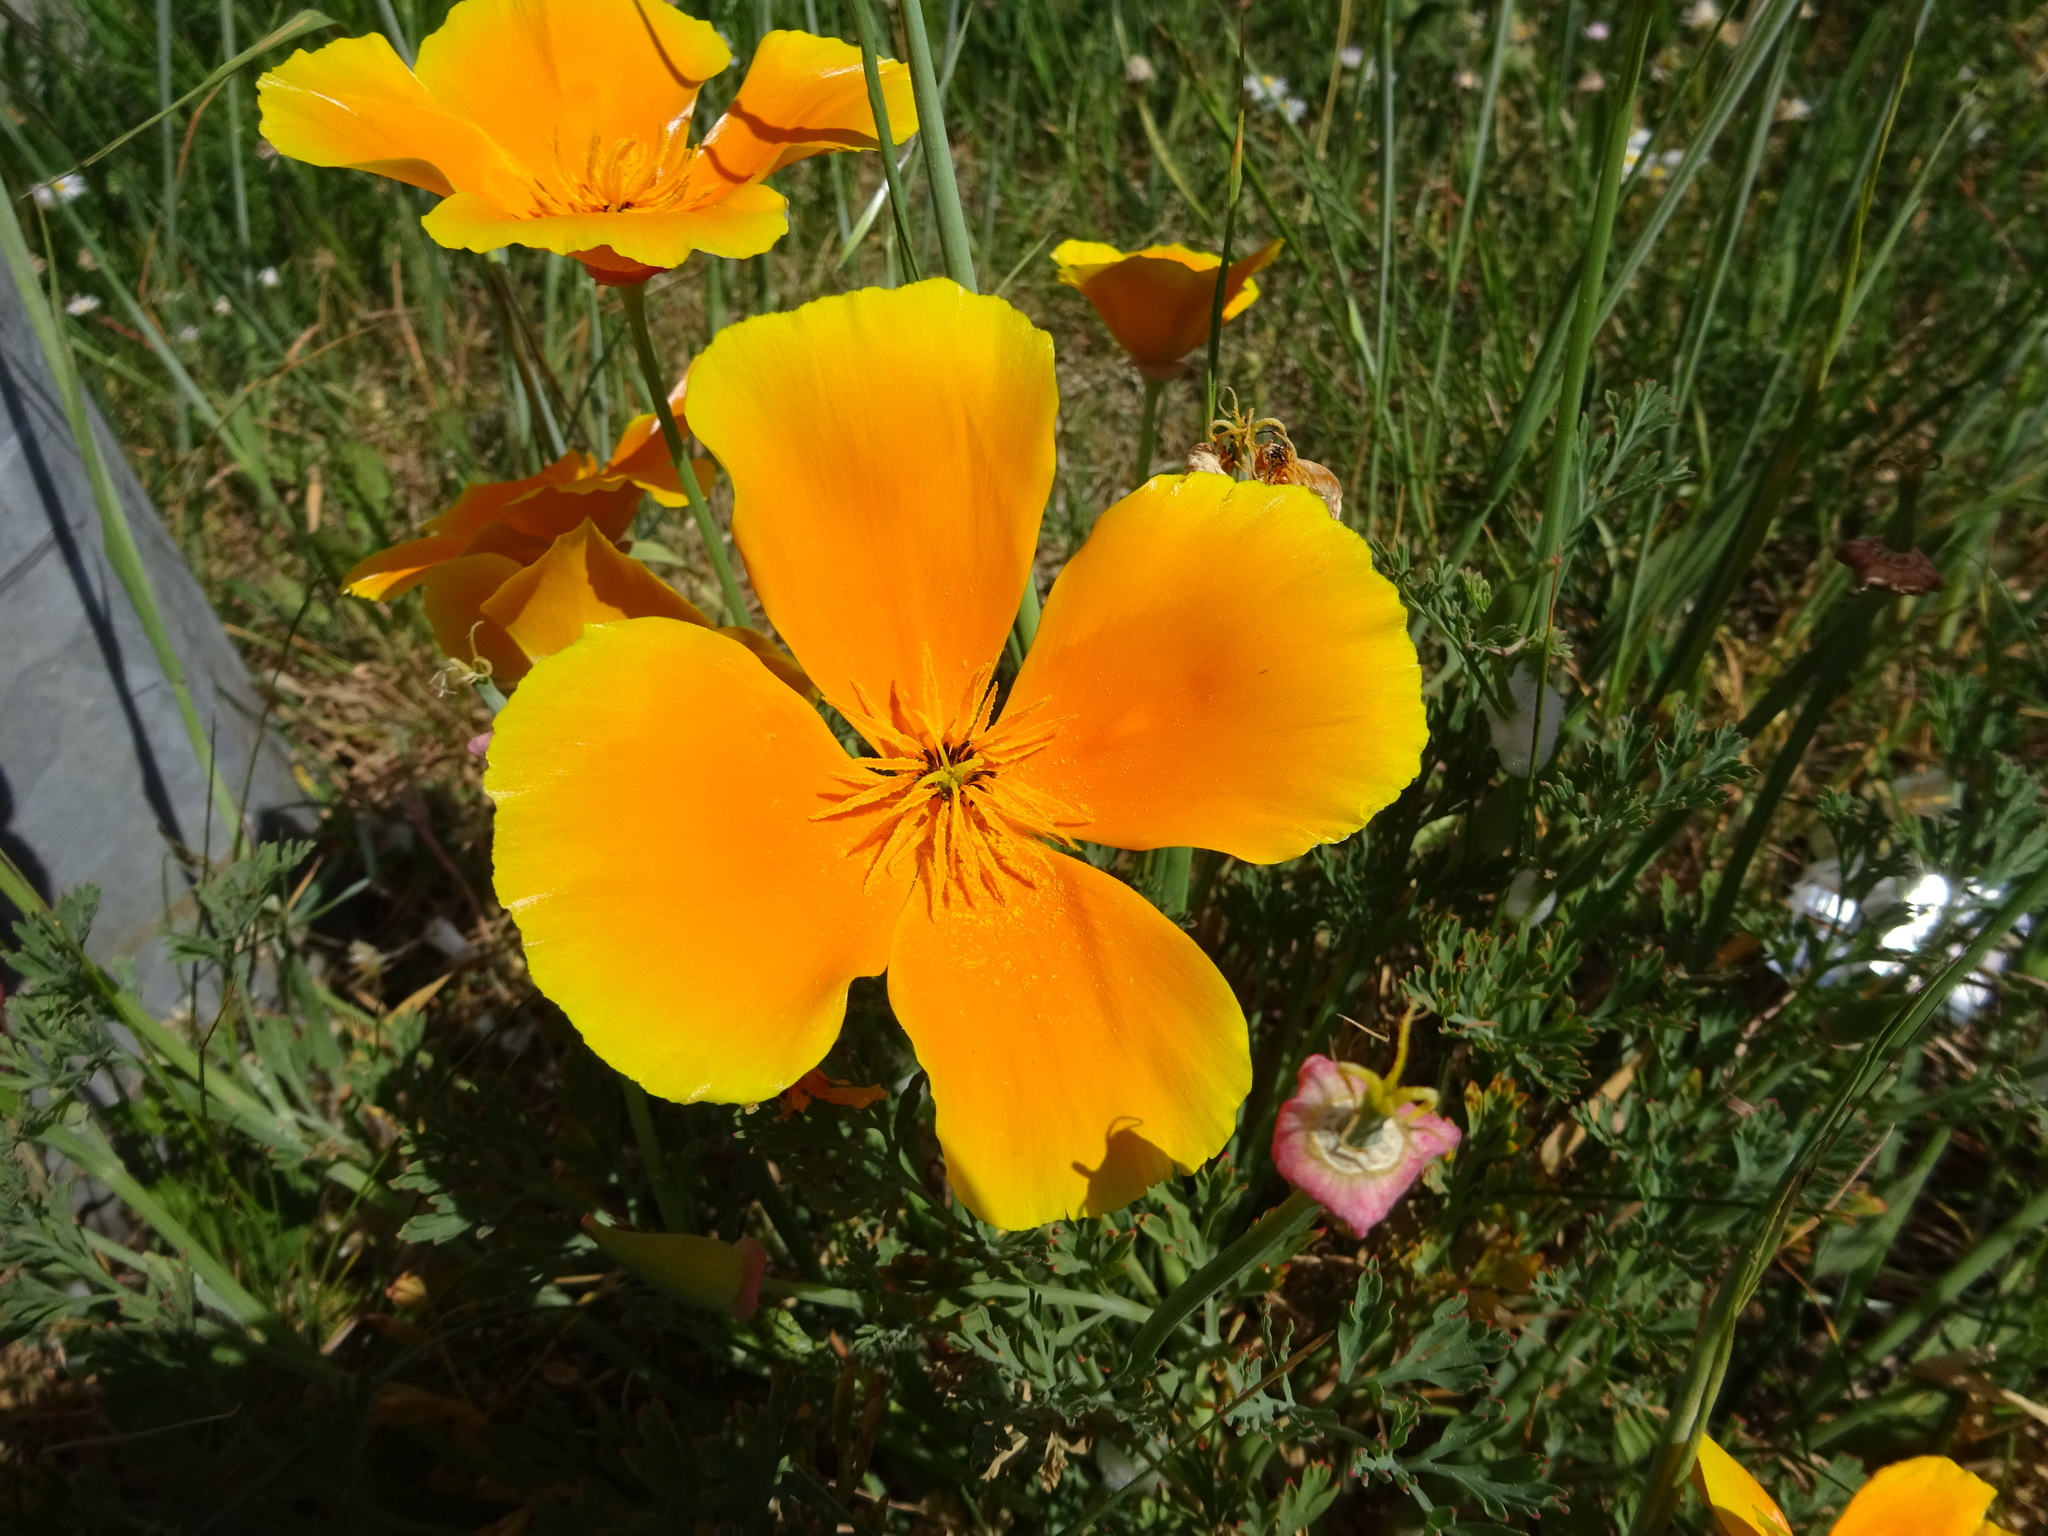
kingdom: Plantae
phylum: Tracheophyta
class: Magnoliopsida
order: Ranunculales
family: Papaveraceae
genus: Eschscholzia
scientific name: Eschscholzia californica
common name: California poppy
